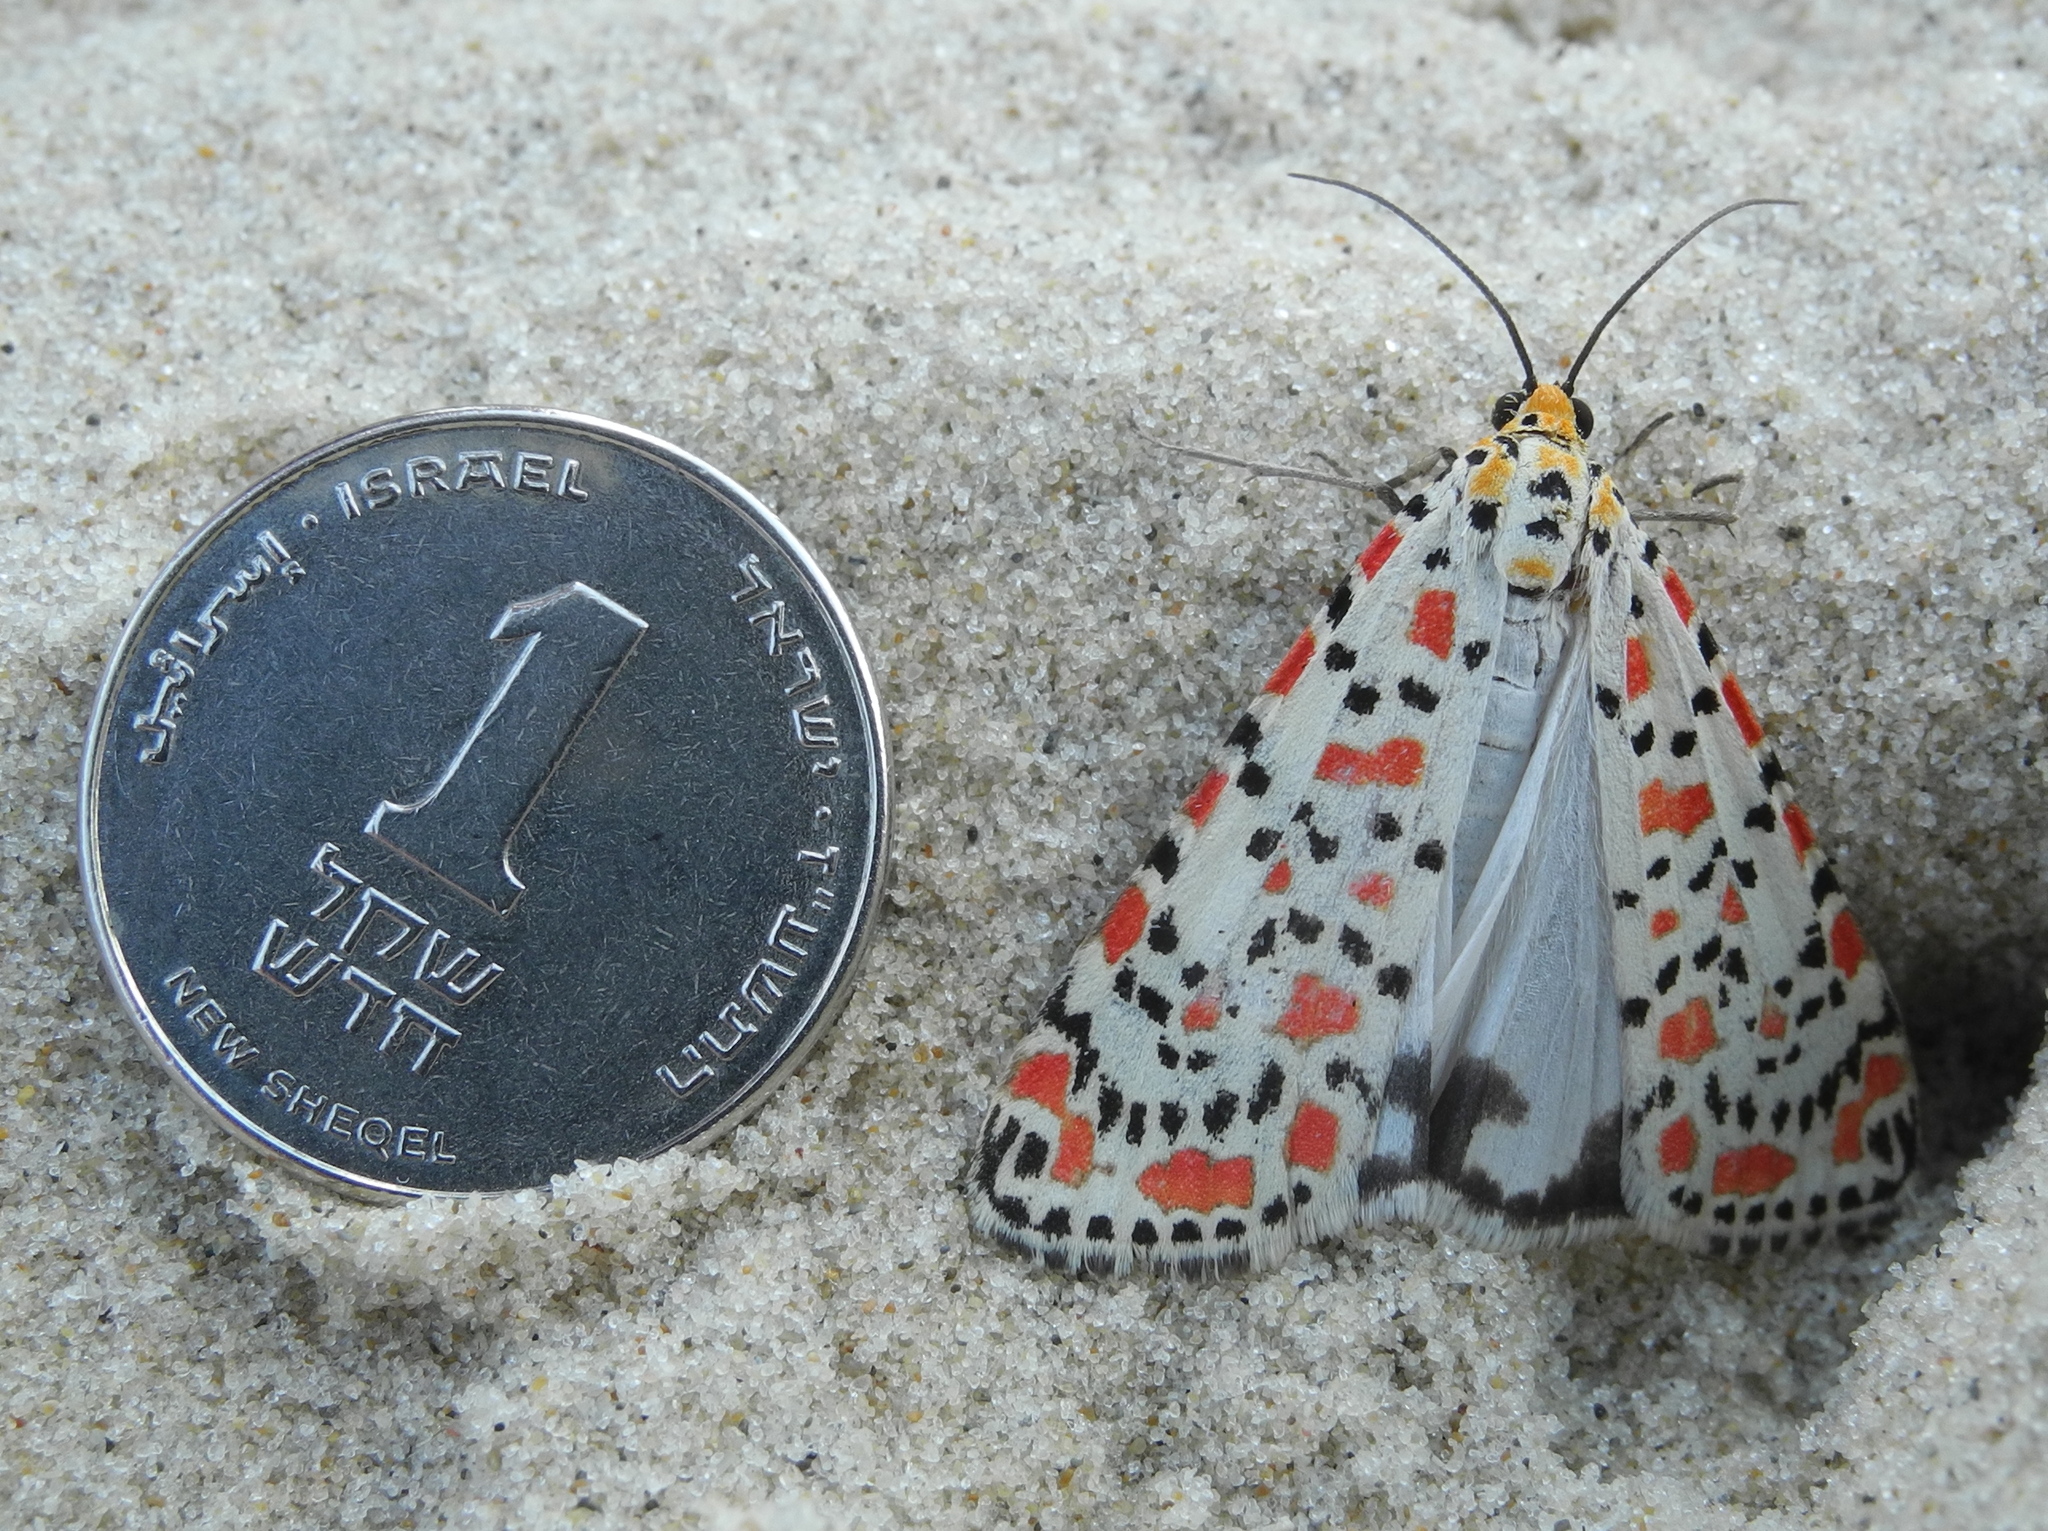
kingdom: Animalia
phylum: Arthropoda
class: Insecta
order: Lepidoptera
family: Erebidae
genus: Utetheisa
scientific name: Utetheisa pulchella
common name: Crimson speckled
